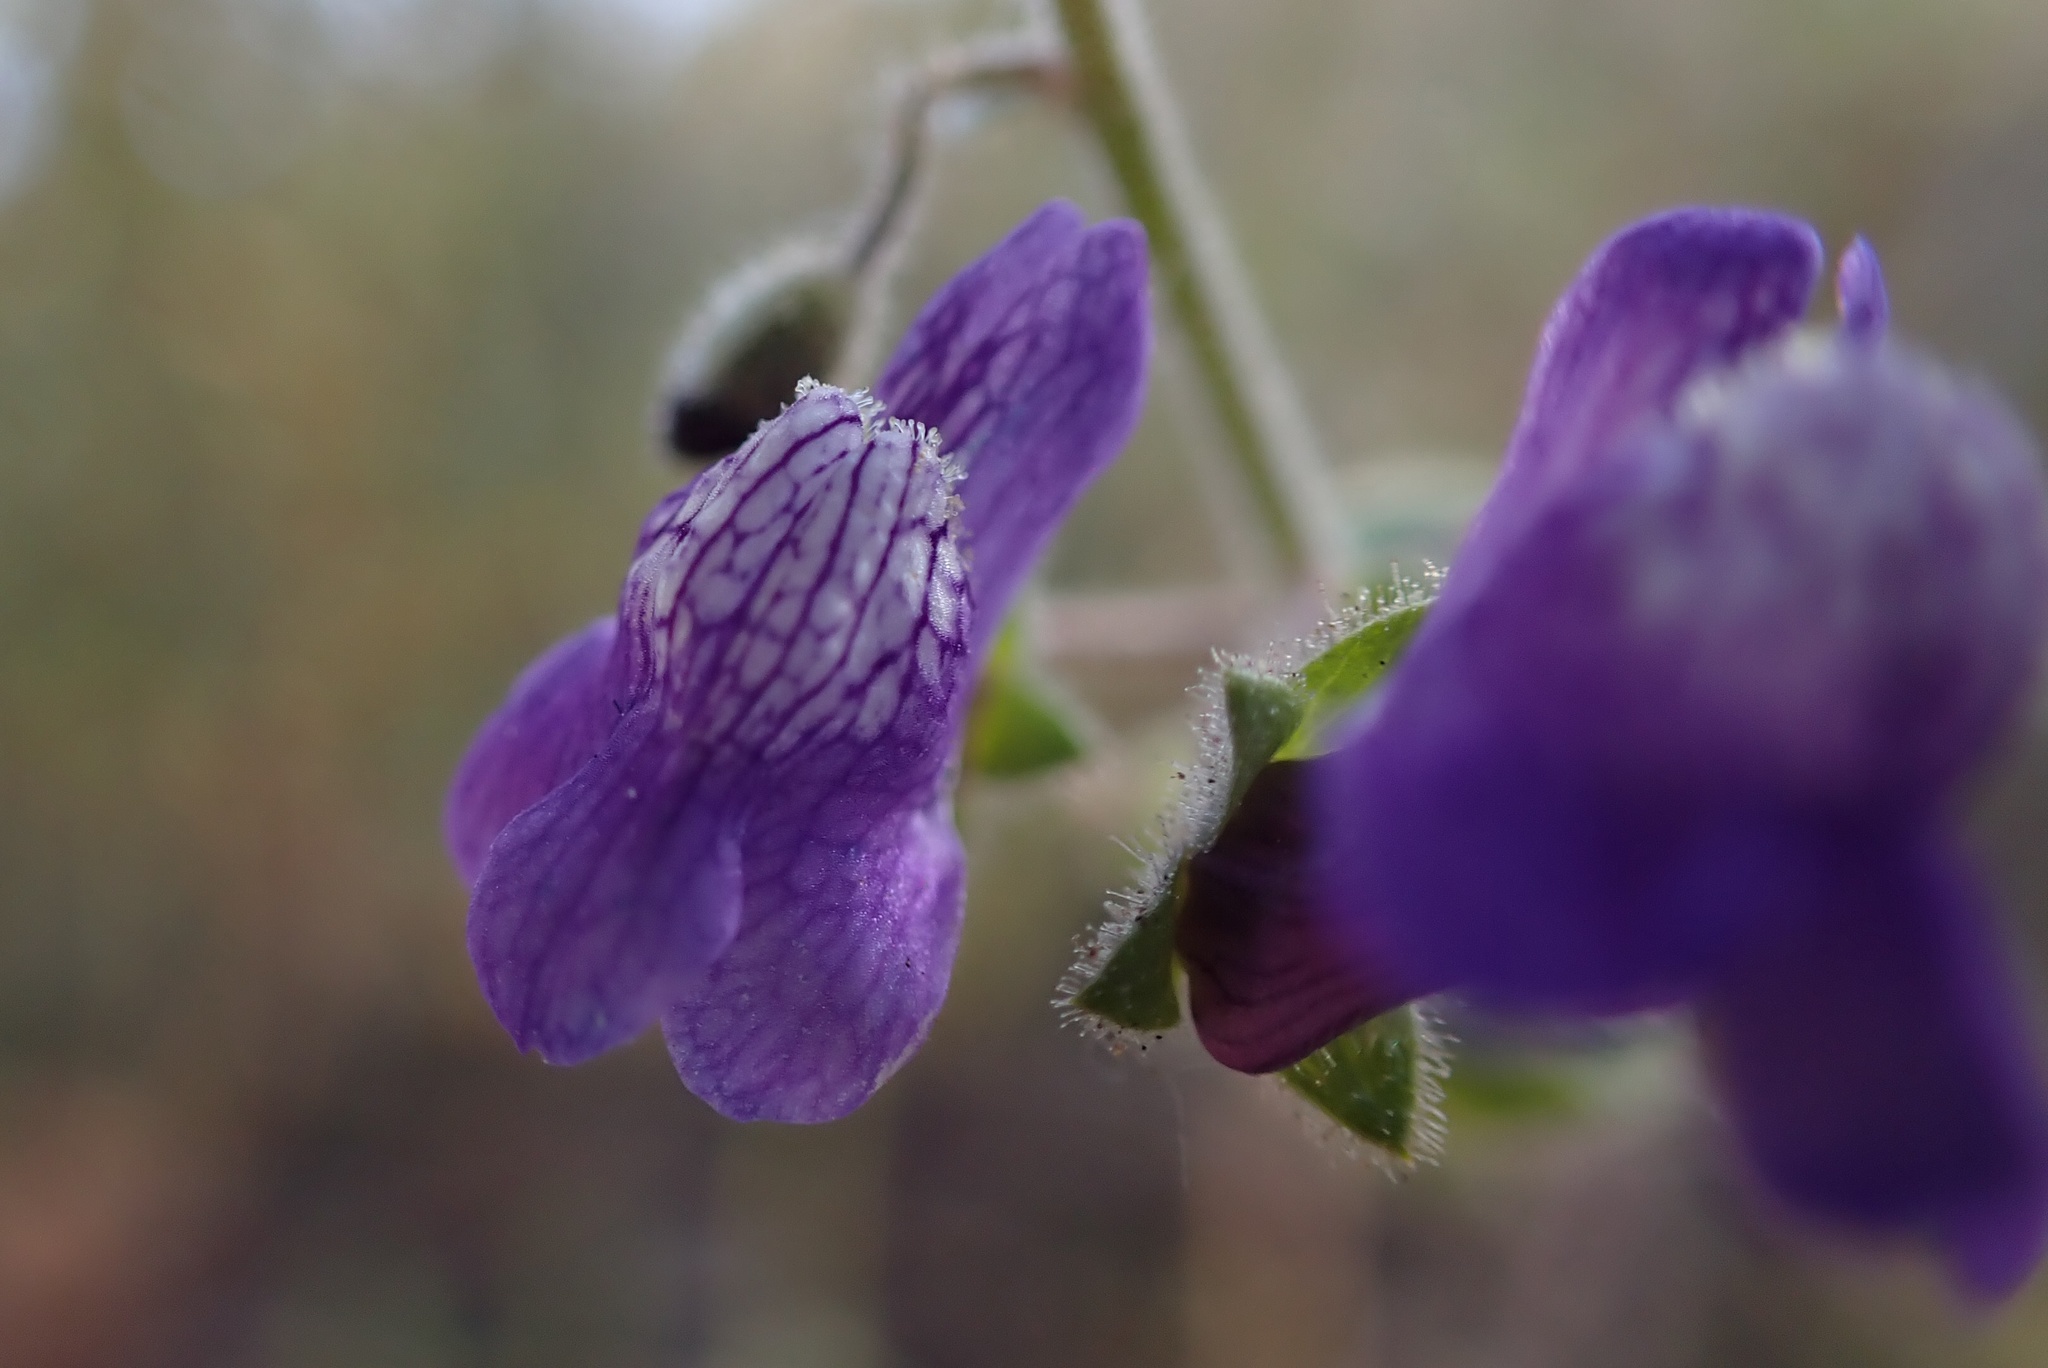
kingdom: Plantae
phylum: Tracheophyta
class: Magnoliopsida
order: Lamiales
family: Plantaginaceae
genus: Sairocarpus
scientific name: Sairocarpus nuttallianus
